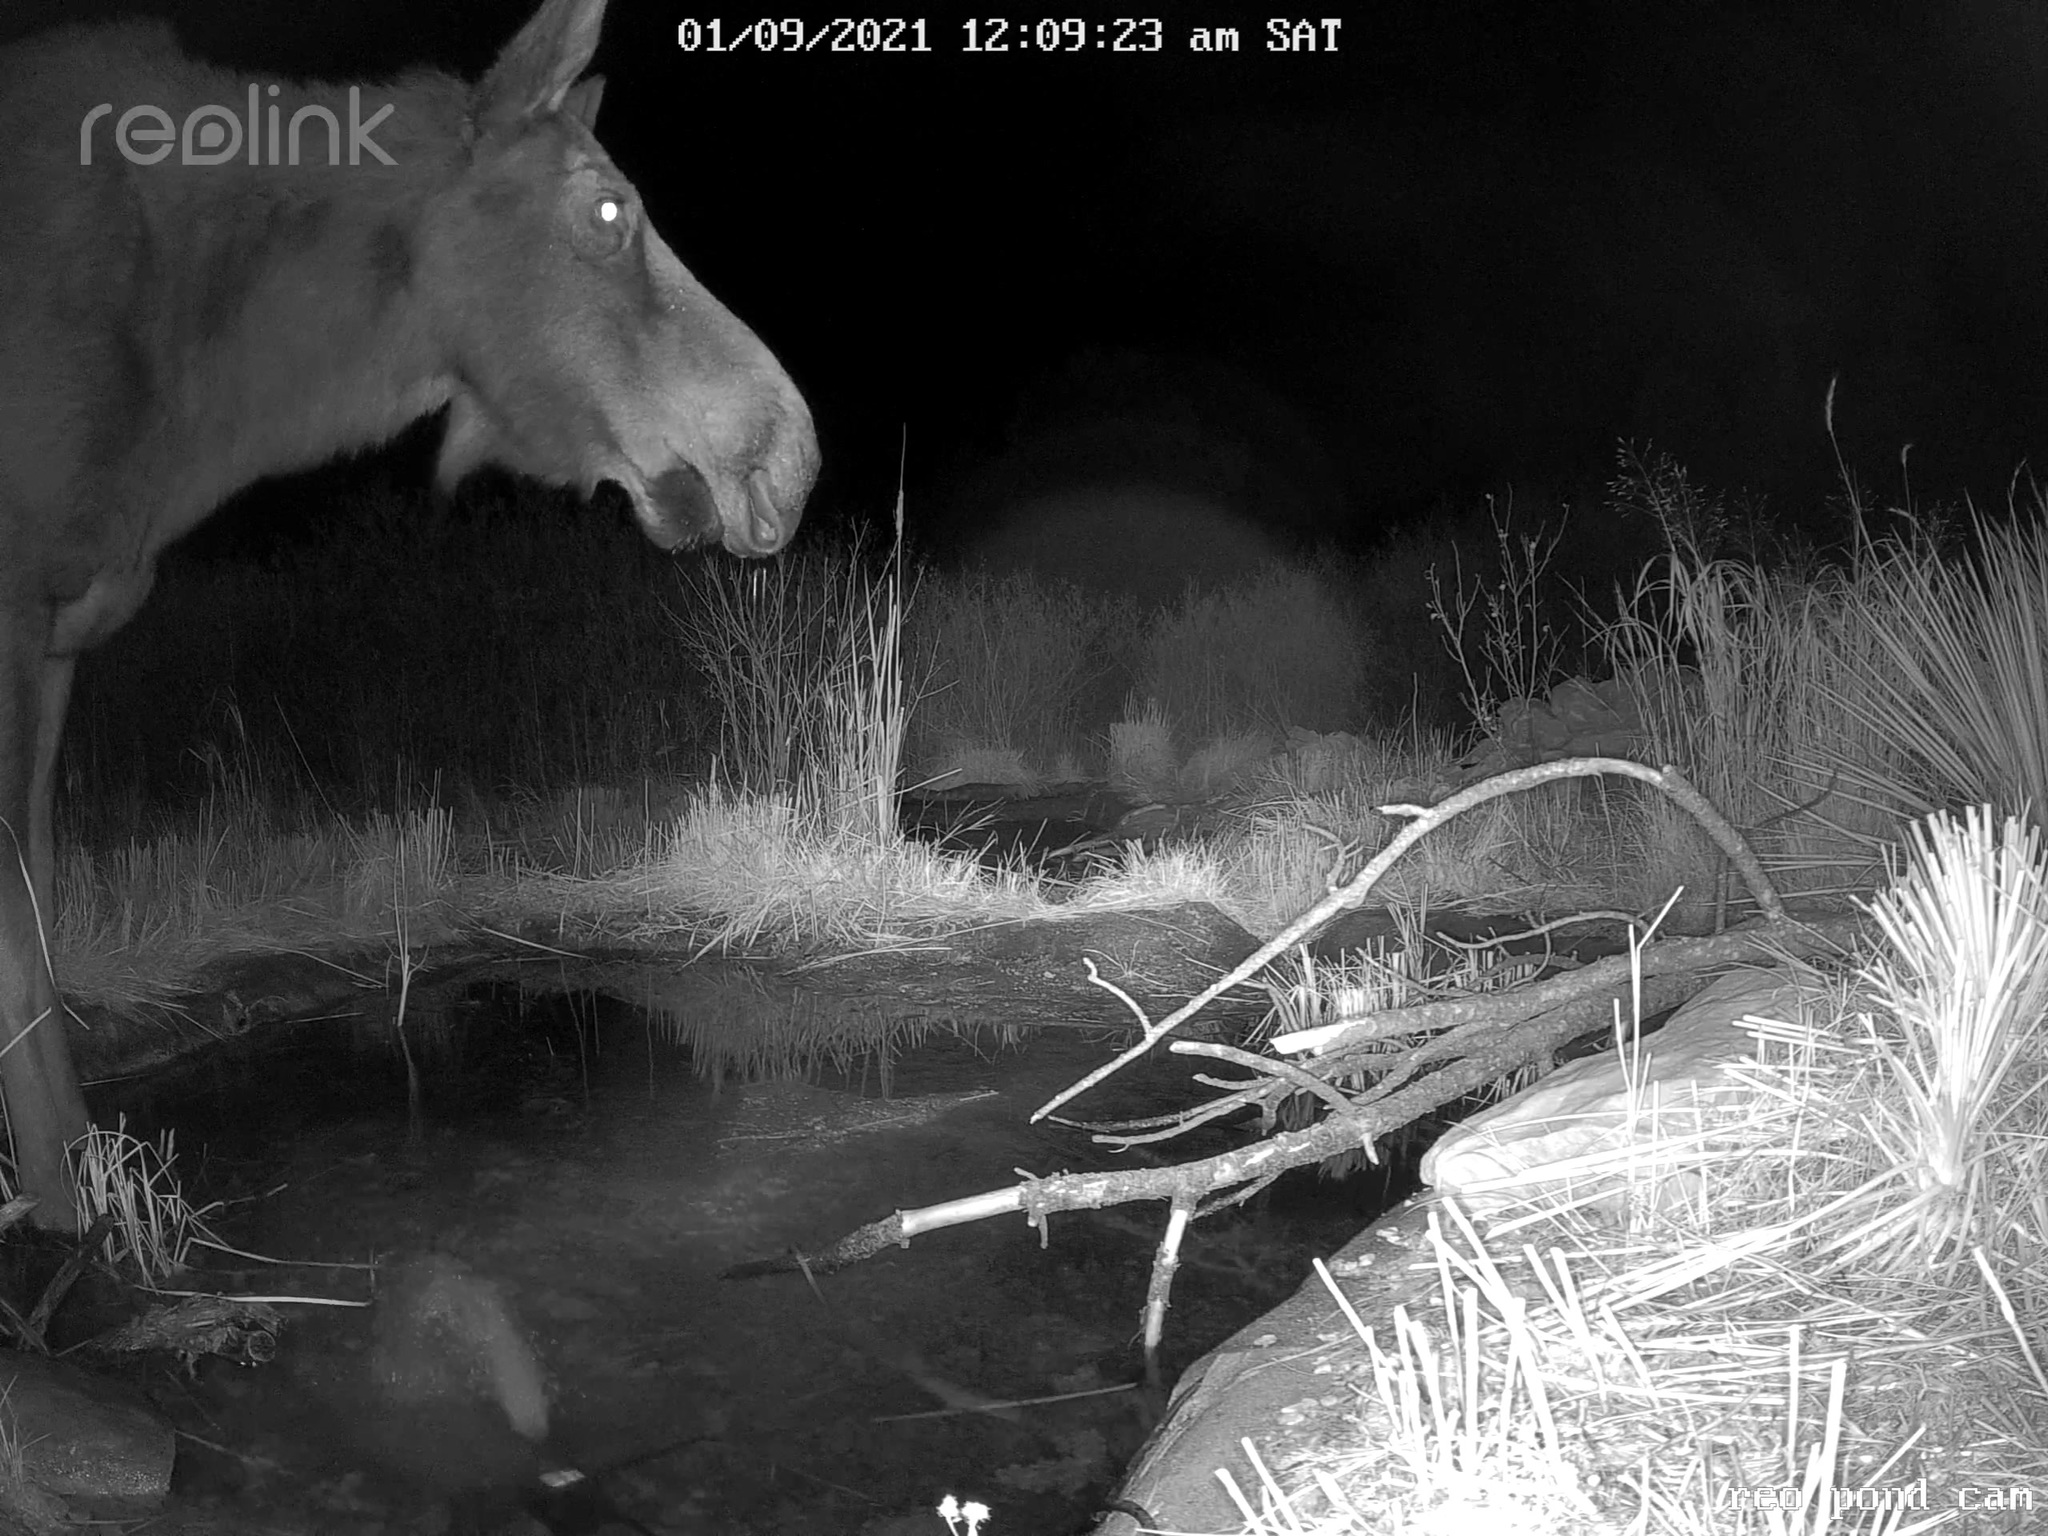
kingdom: Animalia
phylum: Chordata
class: Mammalia
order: Artiodactyla
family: Cervidae
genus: Alces
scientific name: Alces alces
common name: Moose
